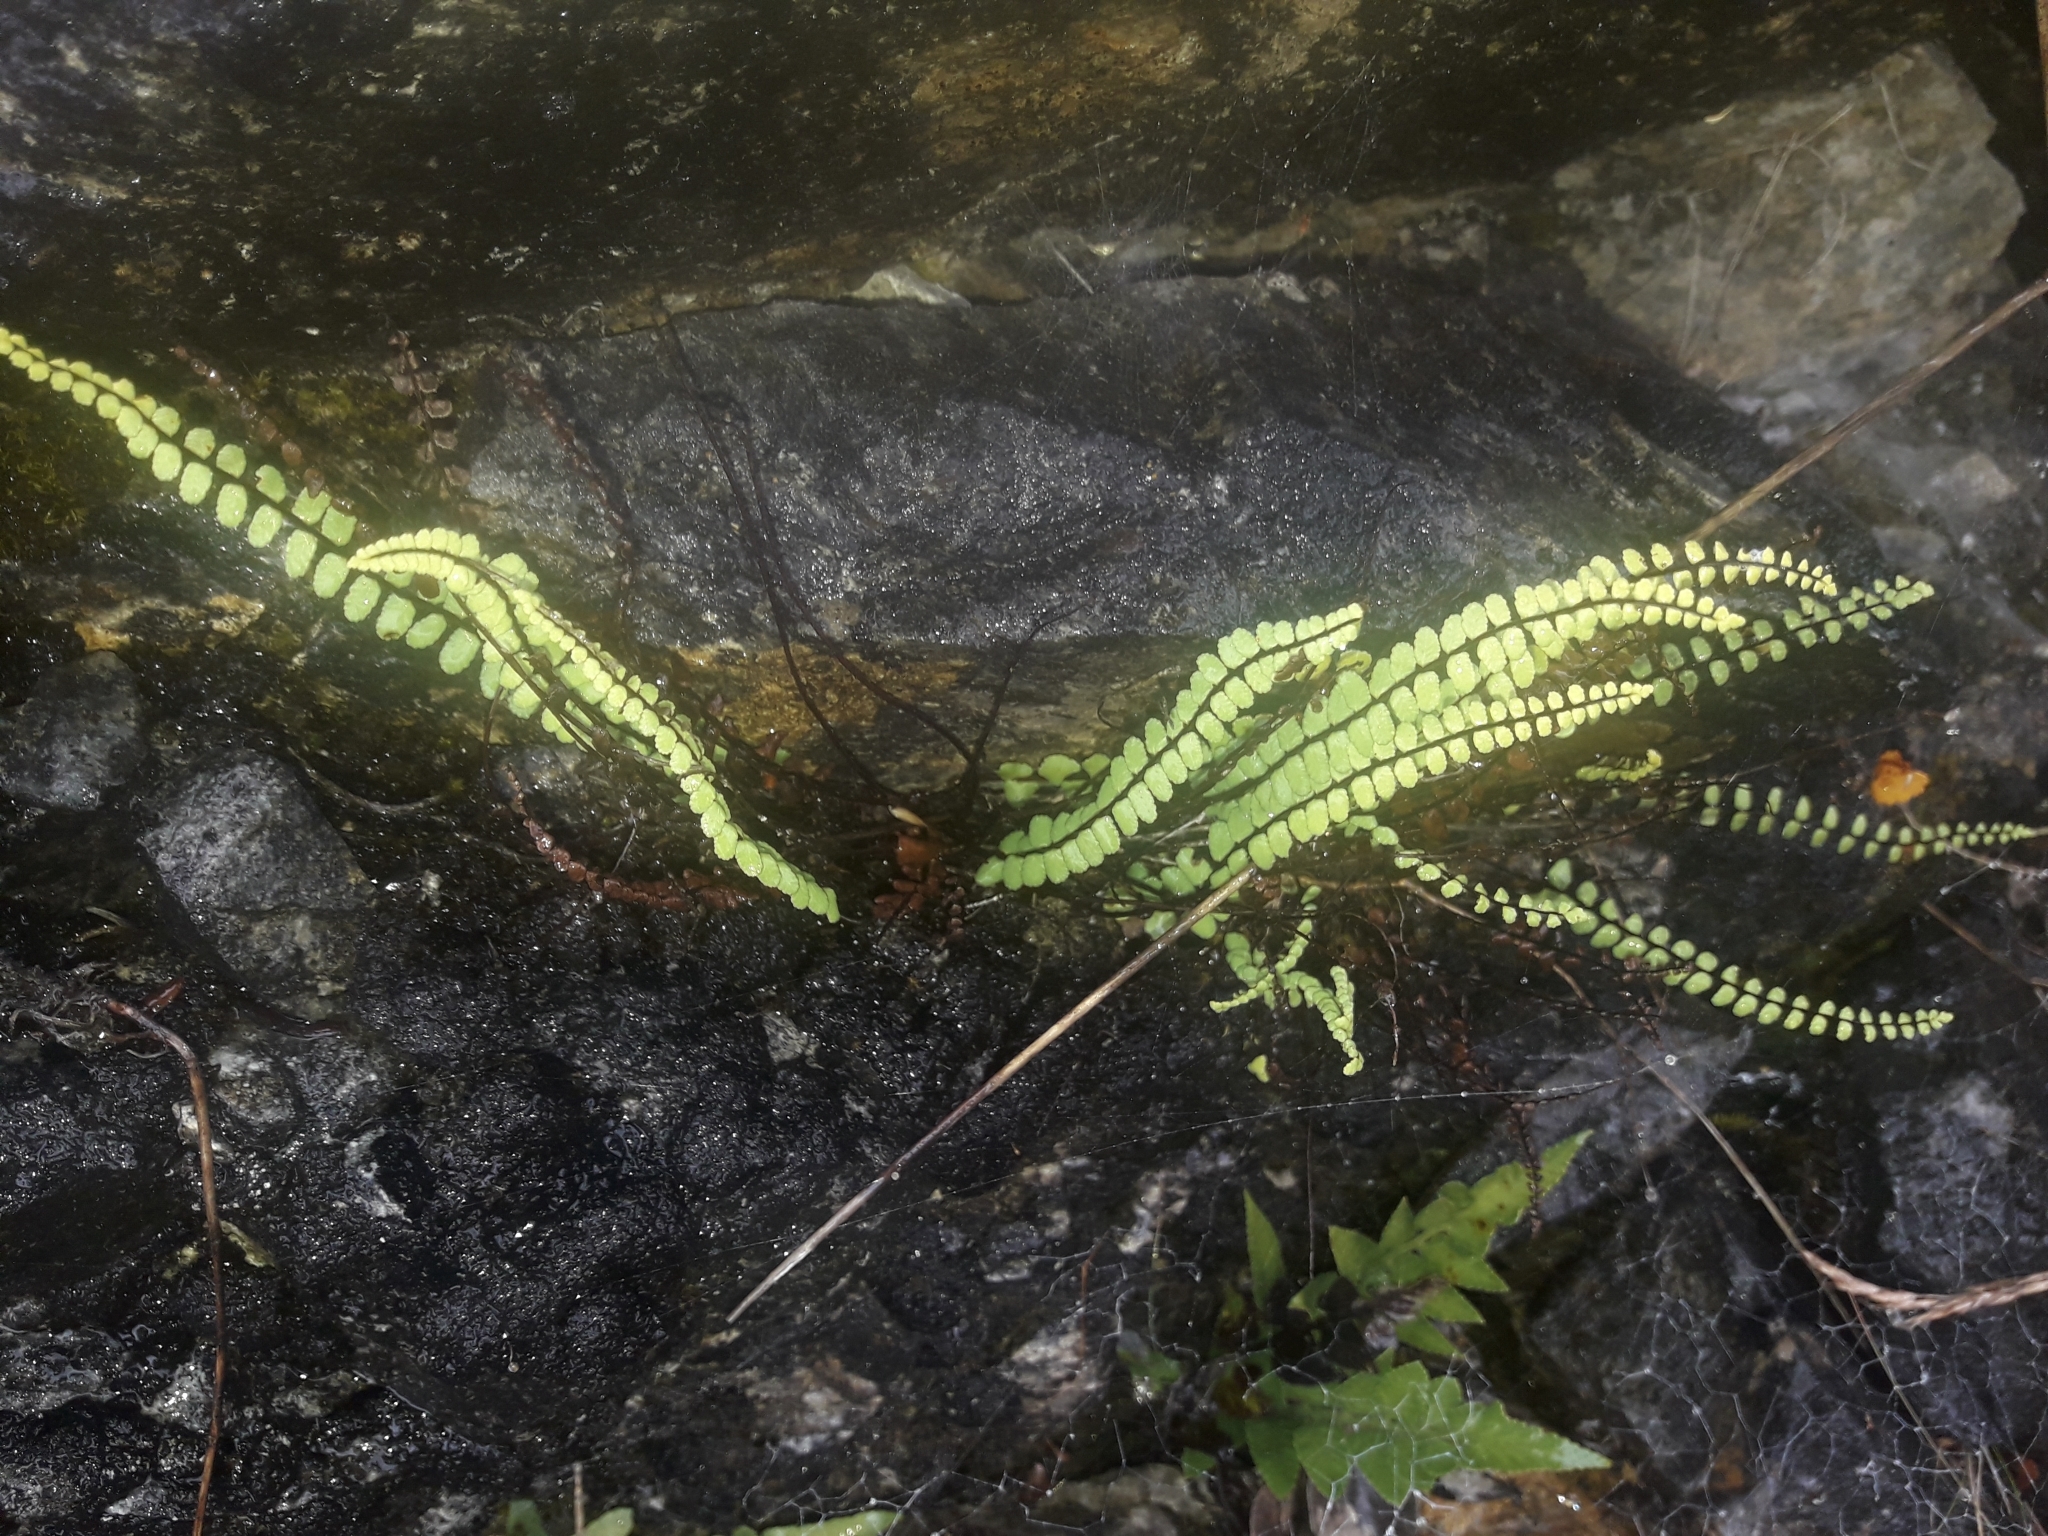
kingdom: Plantae
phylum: Tracheophyta
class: Polypodiopsida
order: Polypodiales
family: Aspleniaceae
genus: Asplenium
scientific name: Asplenium trichomanes
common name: Maidenhair spleenwort
